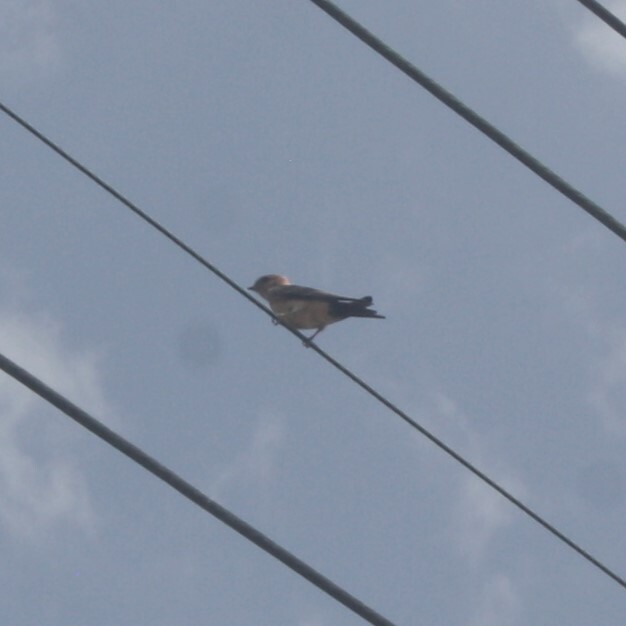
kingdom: Animalia
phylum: Chordata
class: Aves
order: Passeriformes
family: Hirundinidae
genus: Cecropis
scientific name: Cecropis daurica
